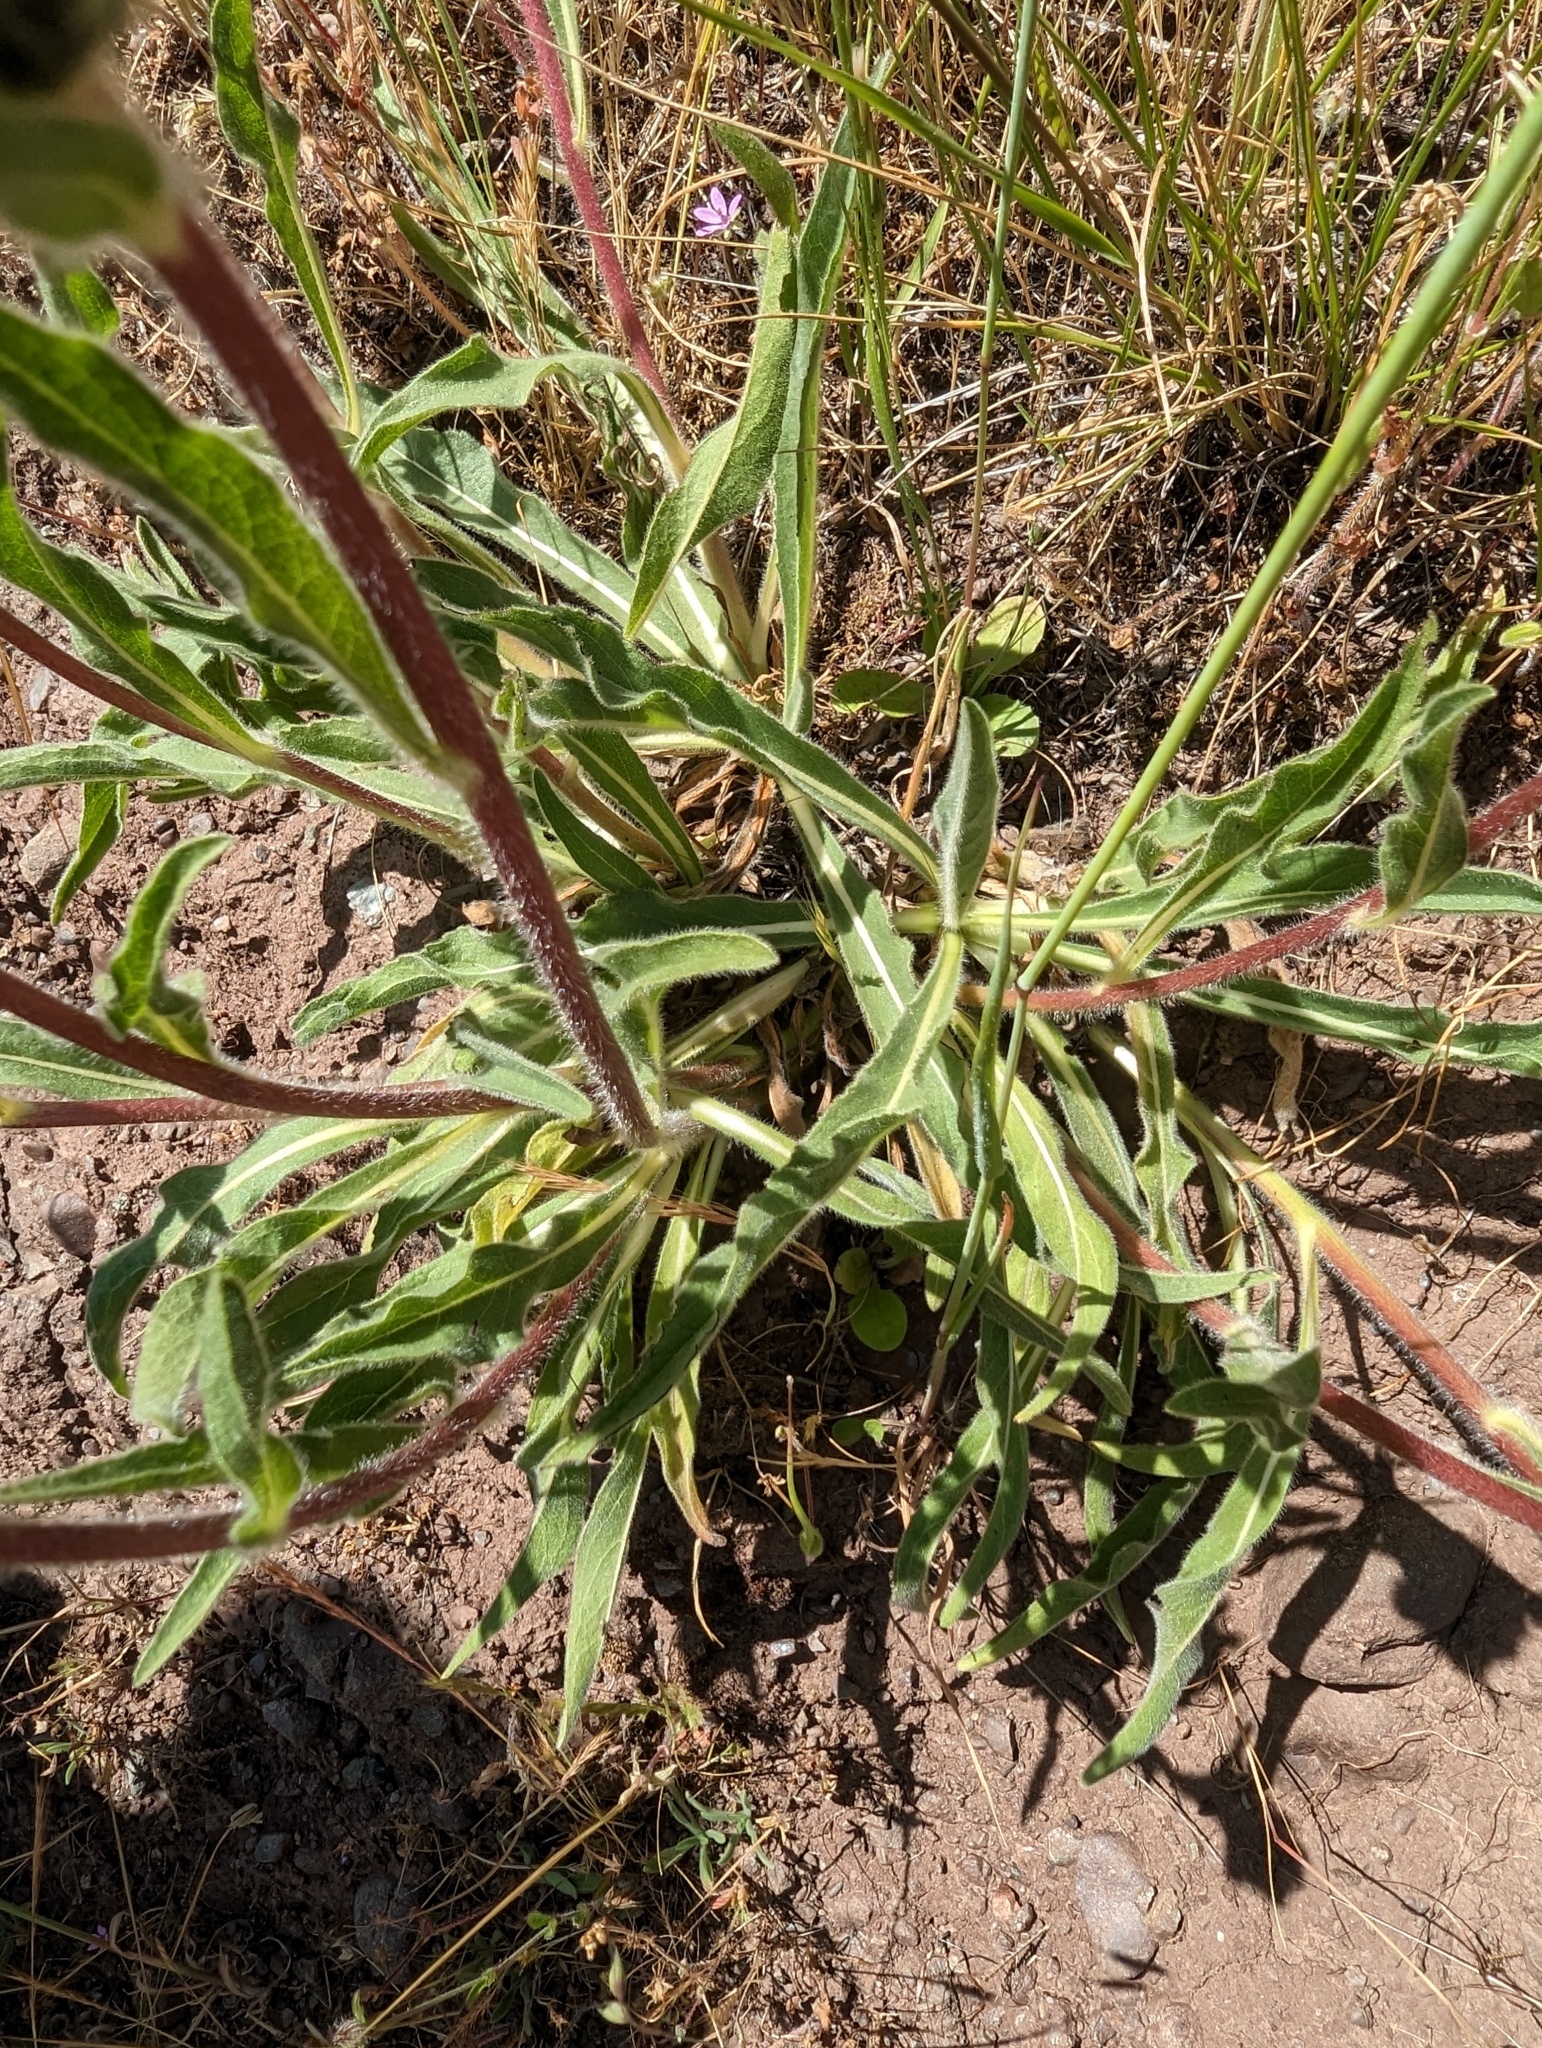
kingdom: Plantae
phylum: Tracheophyta
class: Magnoliopsida
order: Asterales
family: Asteraceae
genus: Wyethia
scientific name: Wyethia angustifolia
